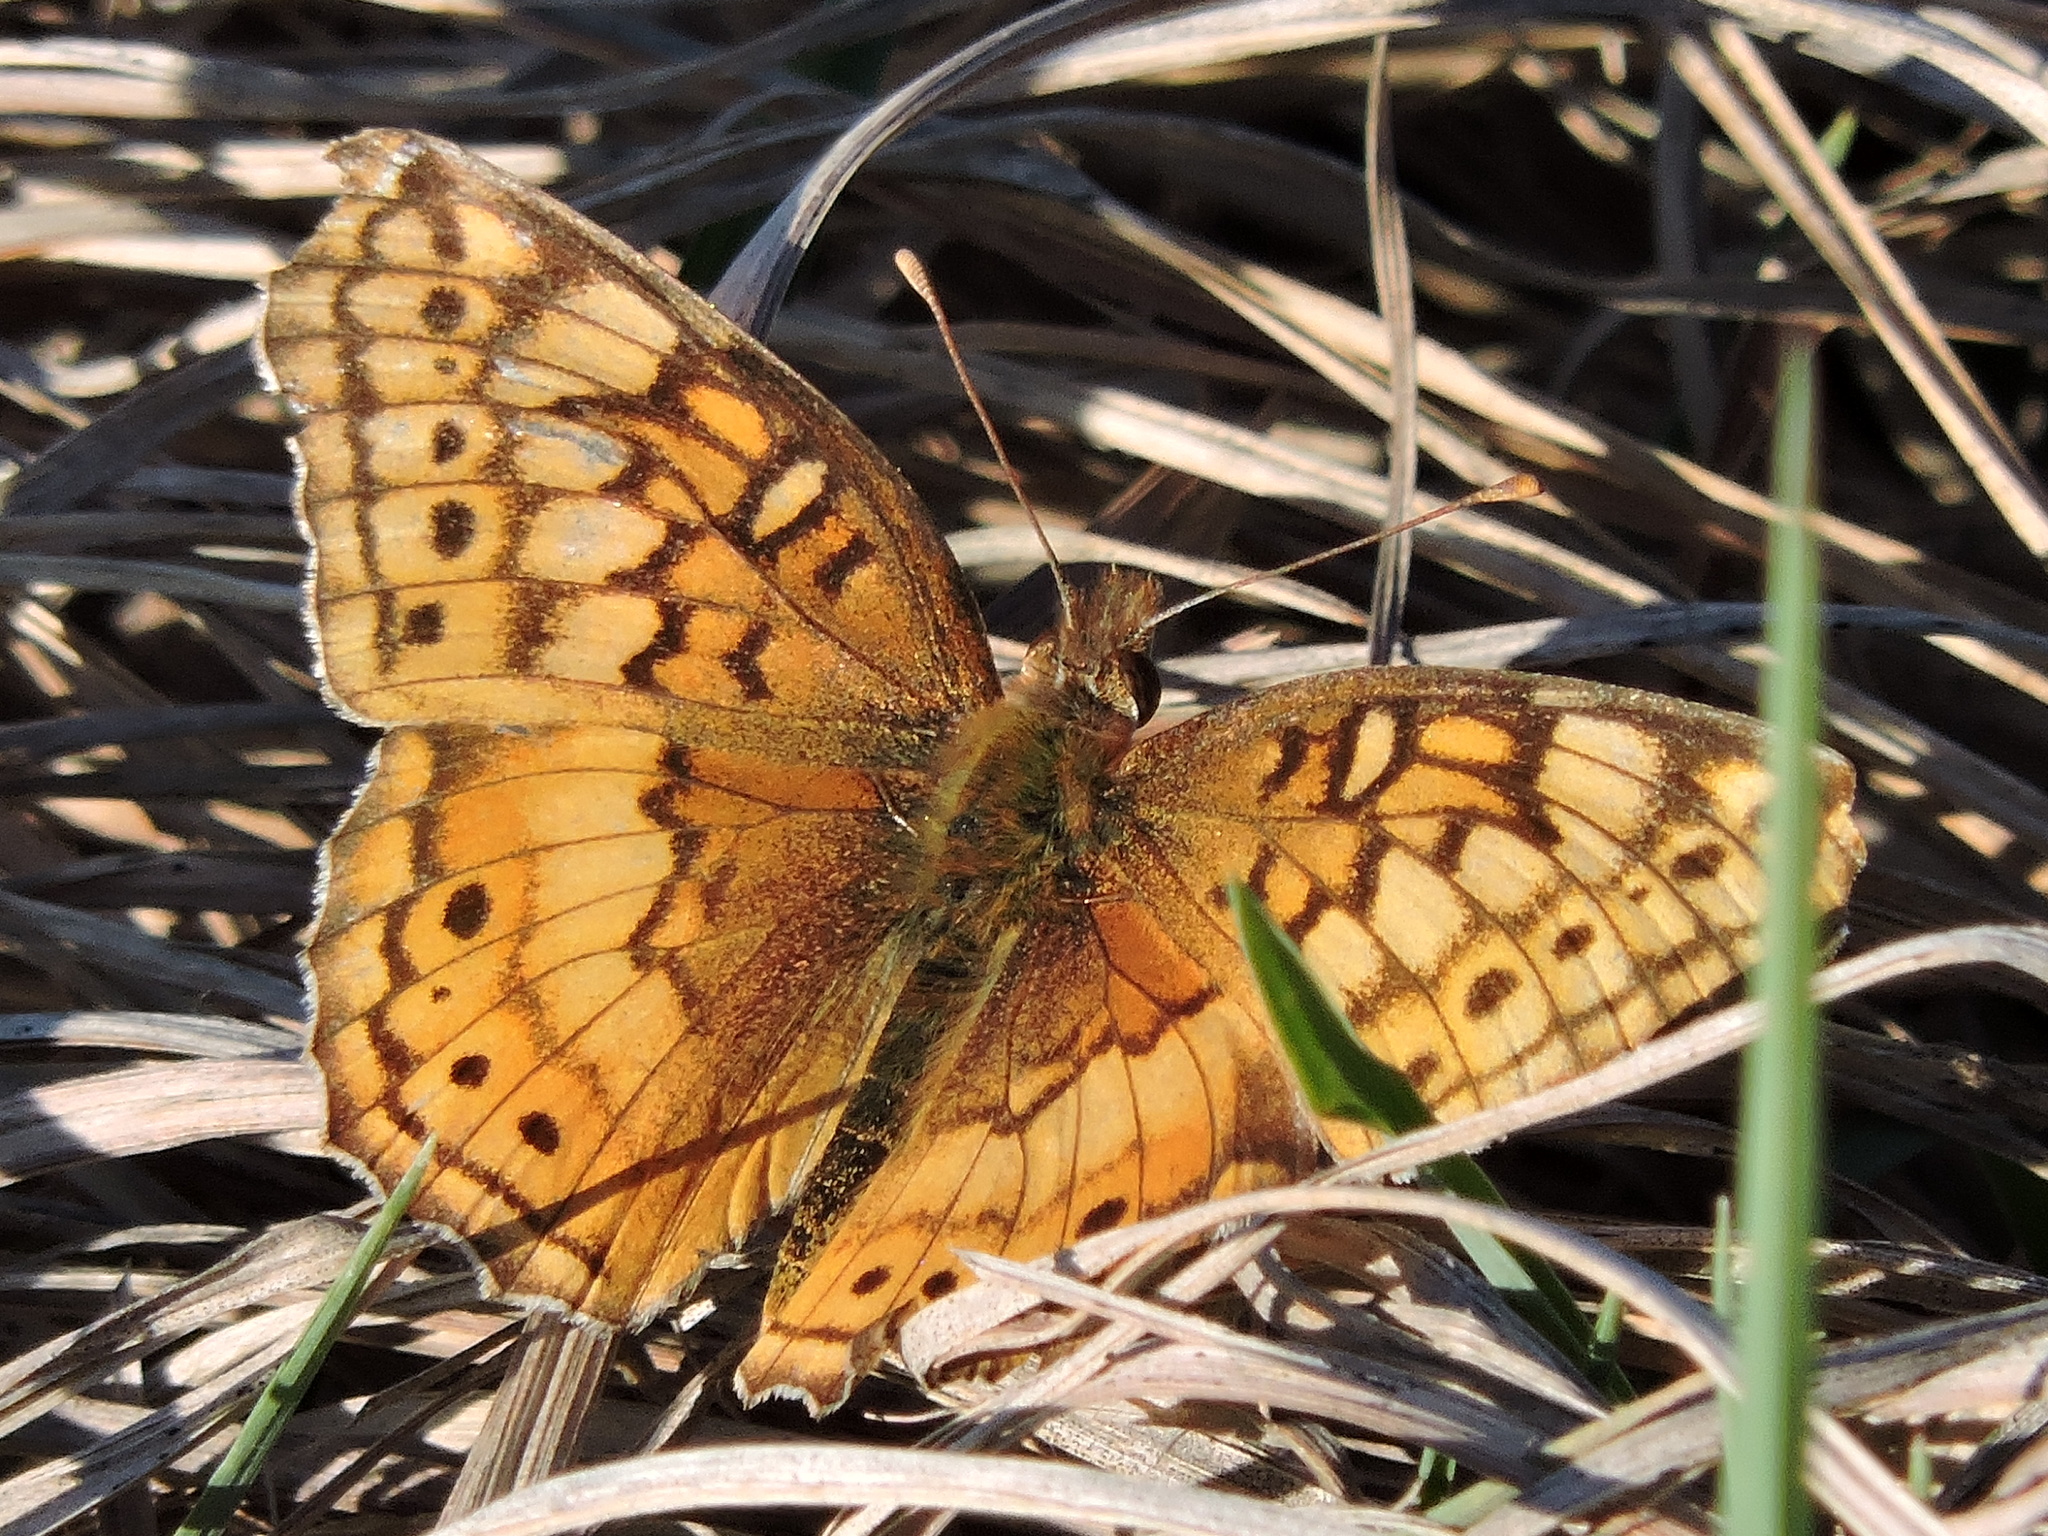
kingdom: Animalia
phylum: Arthropoda
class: Insecta
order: Lepidoptera
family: Nymphalidae
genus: Euptoieta
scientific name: Euptoieta claudia
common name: Variegated fritillary
